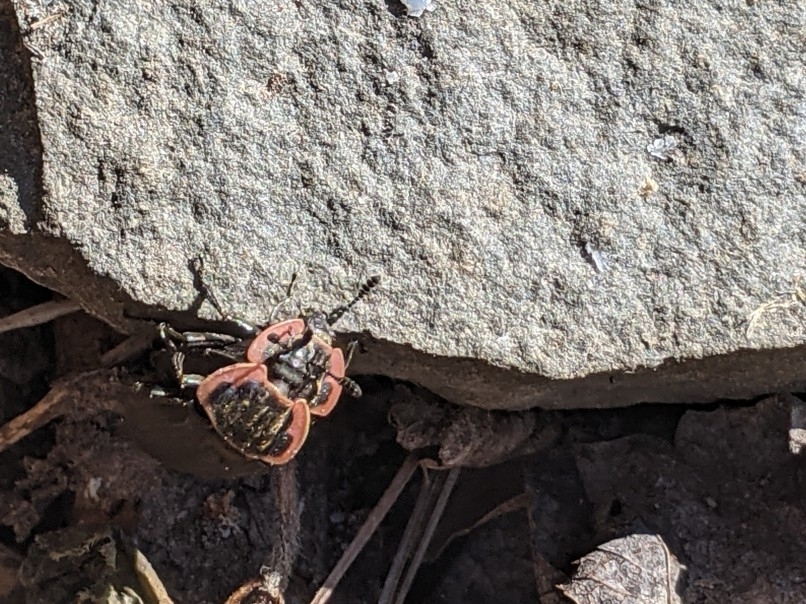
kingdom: Animalia
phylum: Arthropoda
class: Insecta
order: Coleoptera
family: Staphylinidae
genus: Oiceoptoma
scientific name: Oiceoptoma noveboracense
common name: Margined carrion beetle
